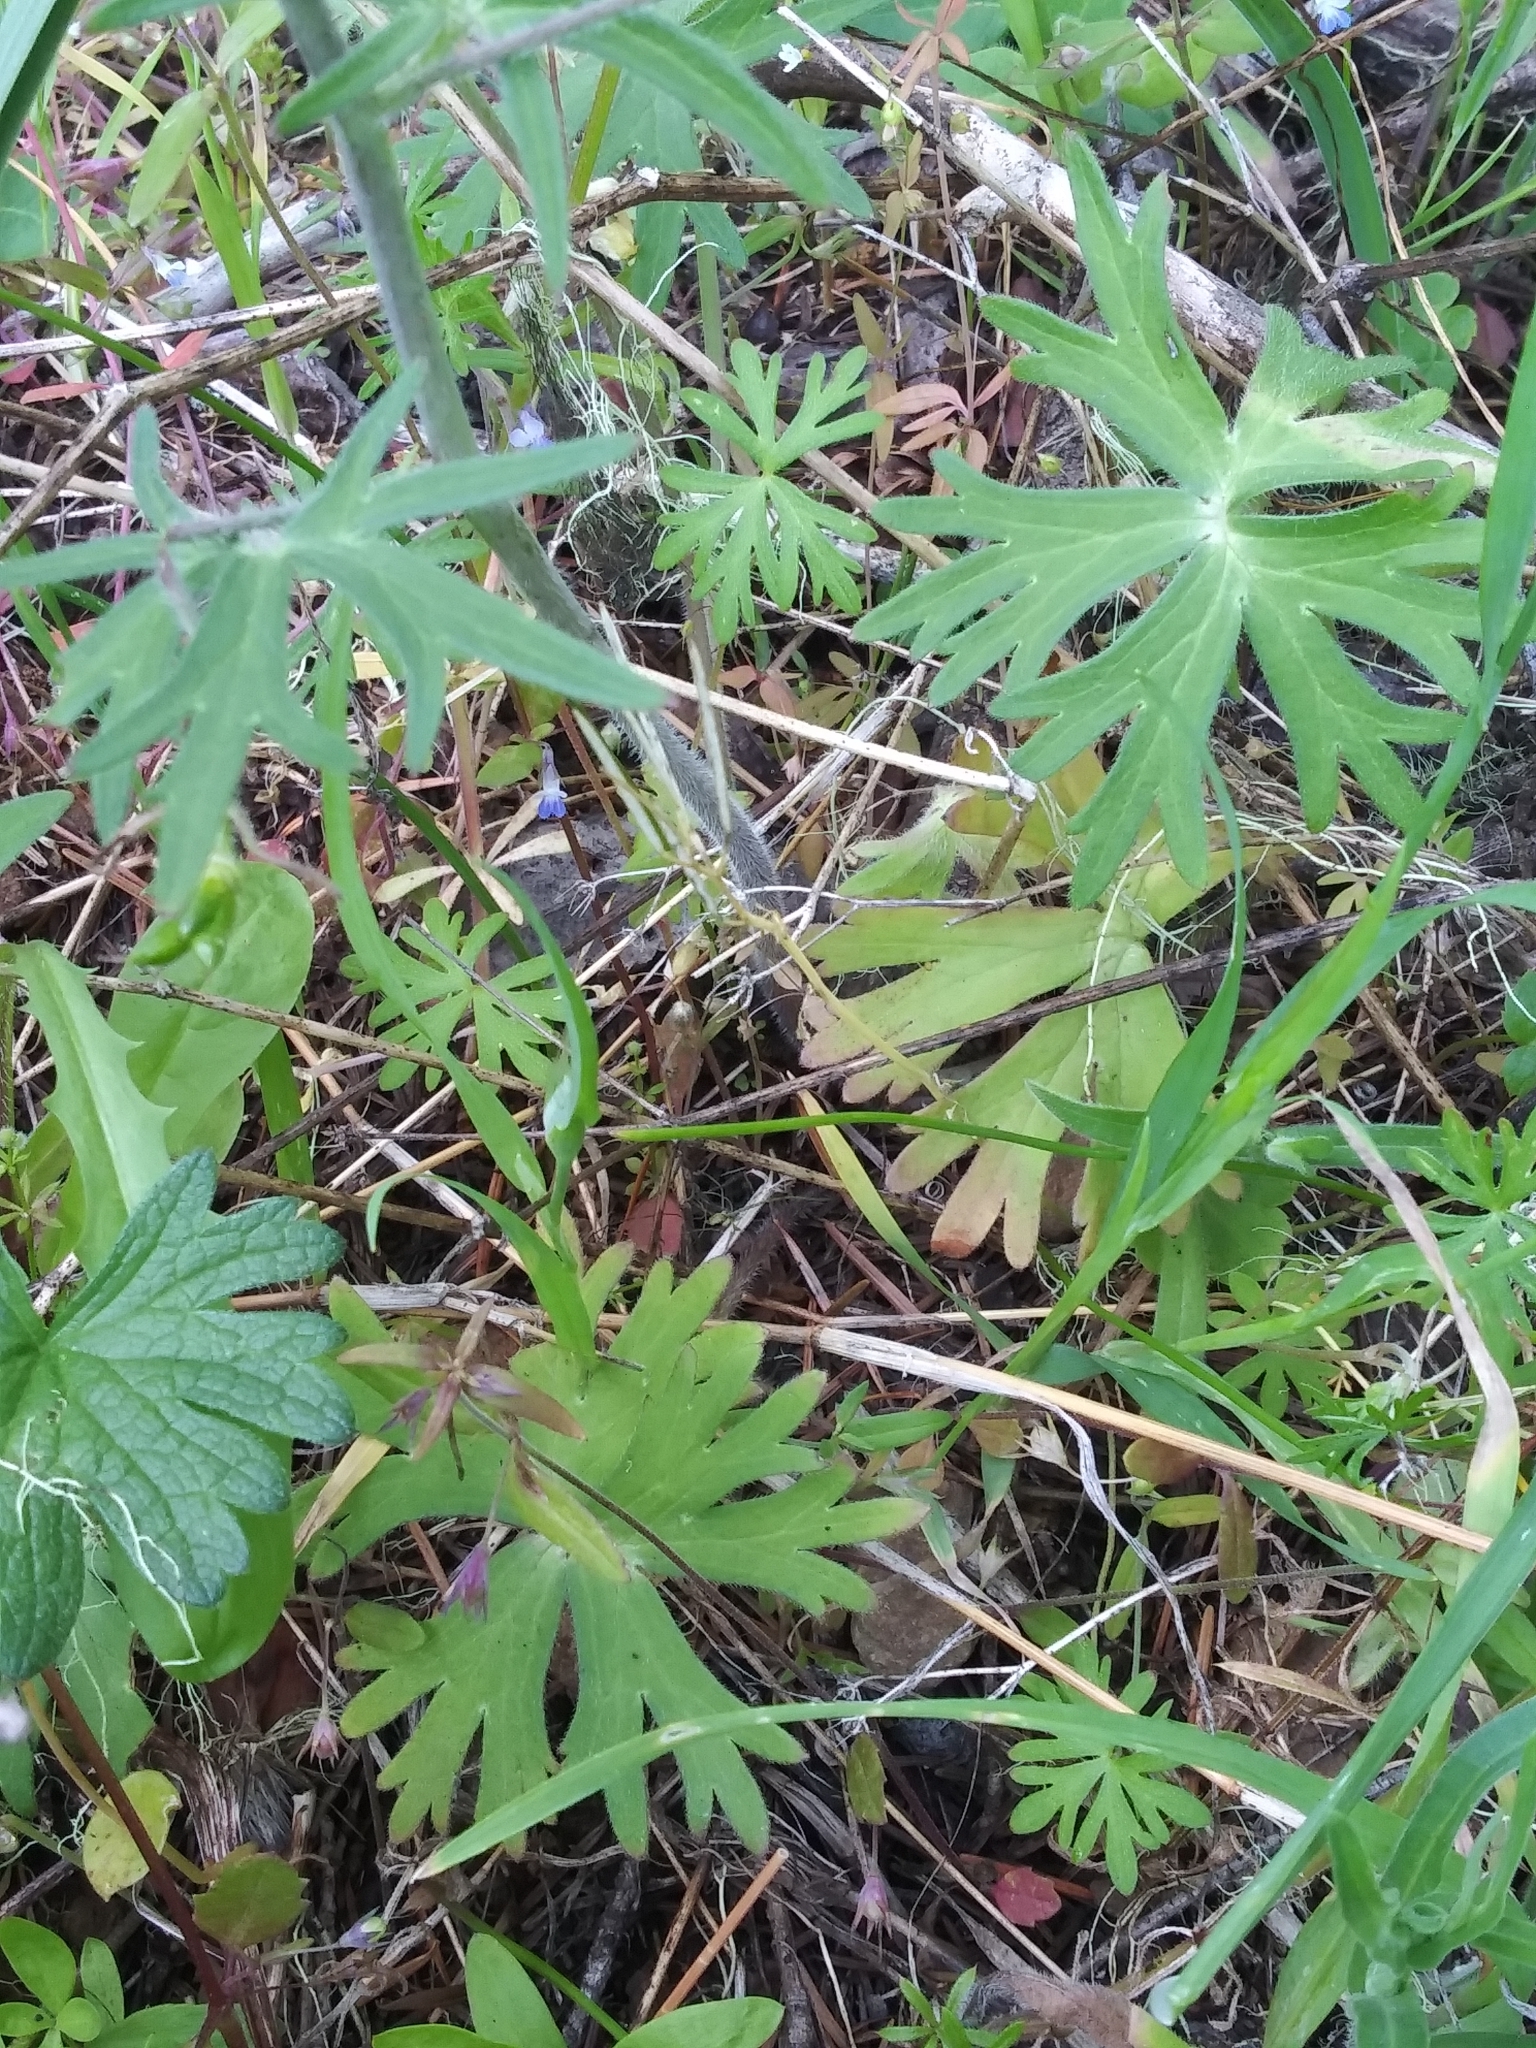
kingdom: Plantae
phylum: Tracheophyta
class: Magnoliopsida
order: Ranunculales
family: Ranunculaceae
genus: Delphinium
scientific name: Delphinium menziesii
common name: Menzies's larkspur
